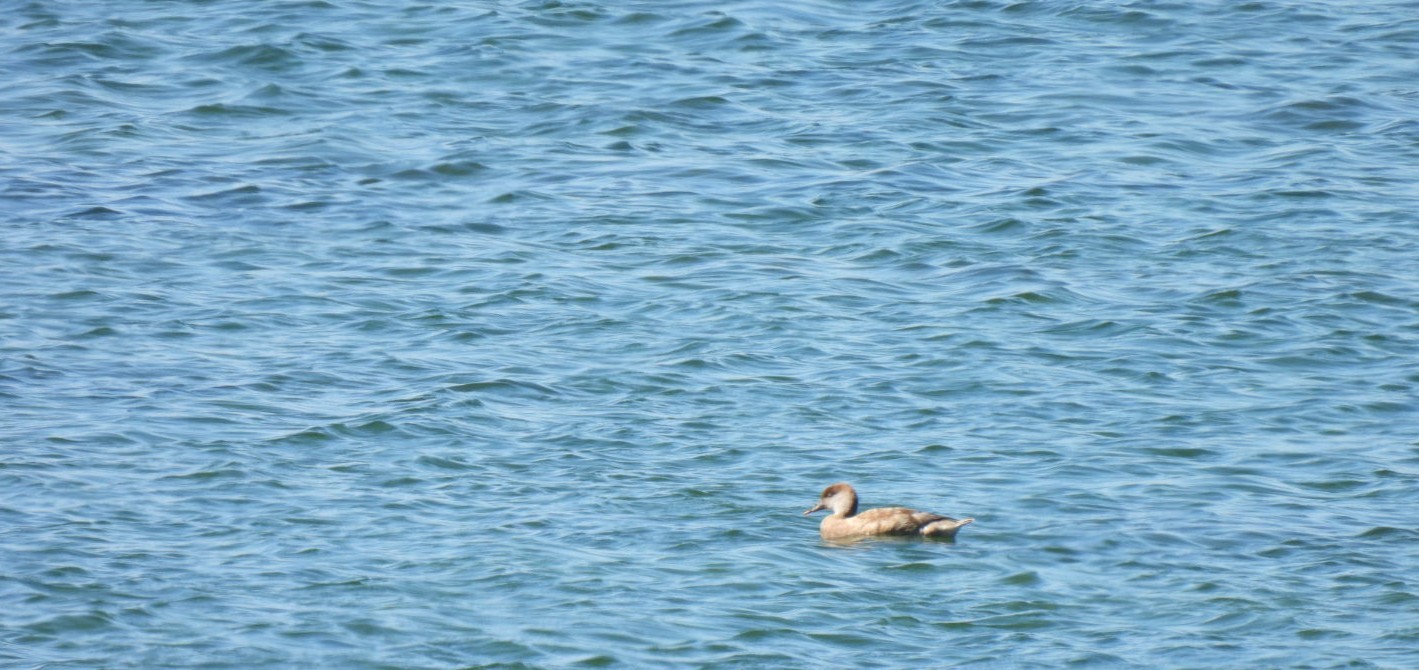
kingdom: Animalia
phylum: Chordata
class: Aves
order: Anseriformes
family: Anatidae
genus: Netta
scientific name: Netta rufina
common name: Red-crested pochard
